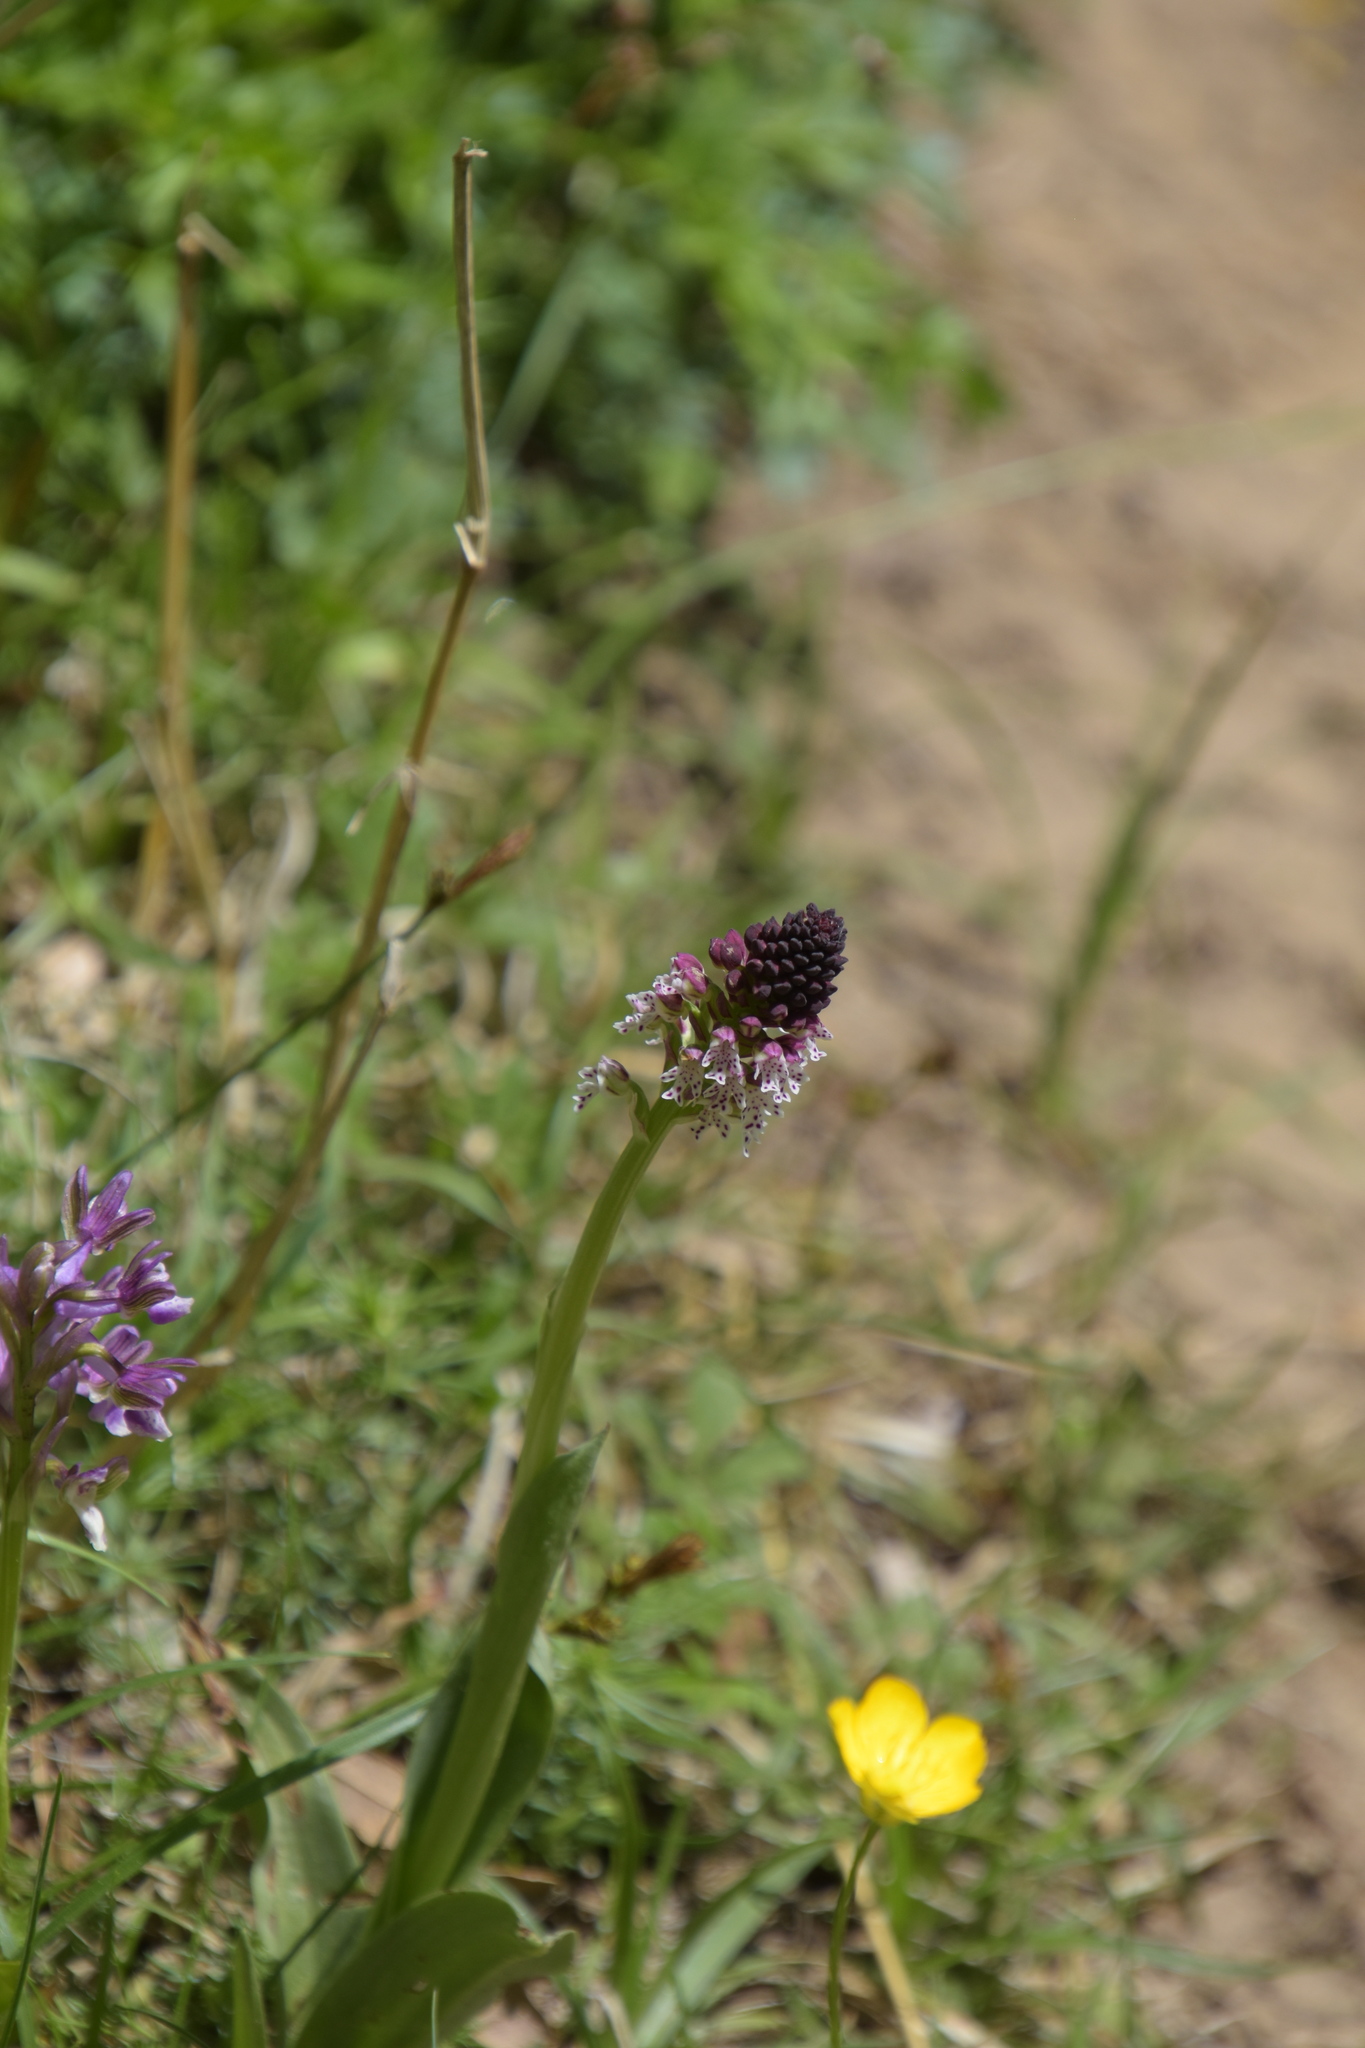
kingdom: Plantae
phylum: Tracheophyta
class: Liliopsida
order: Asparagales
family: Orchidaceae
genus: Neotinea
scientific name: Neotinea ustulata
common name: Burnt orchid
